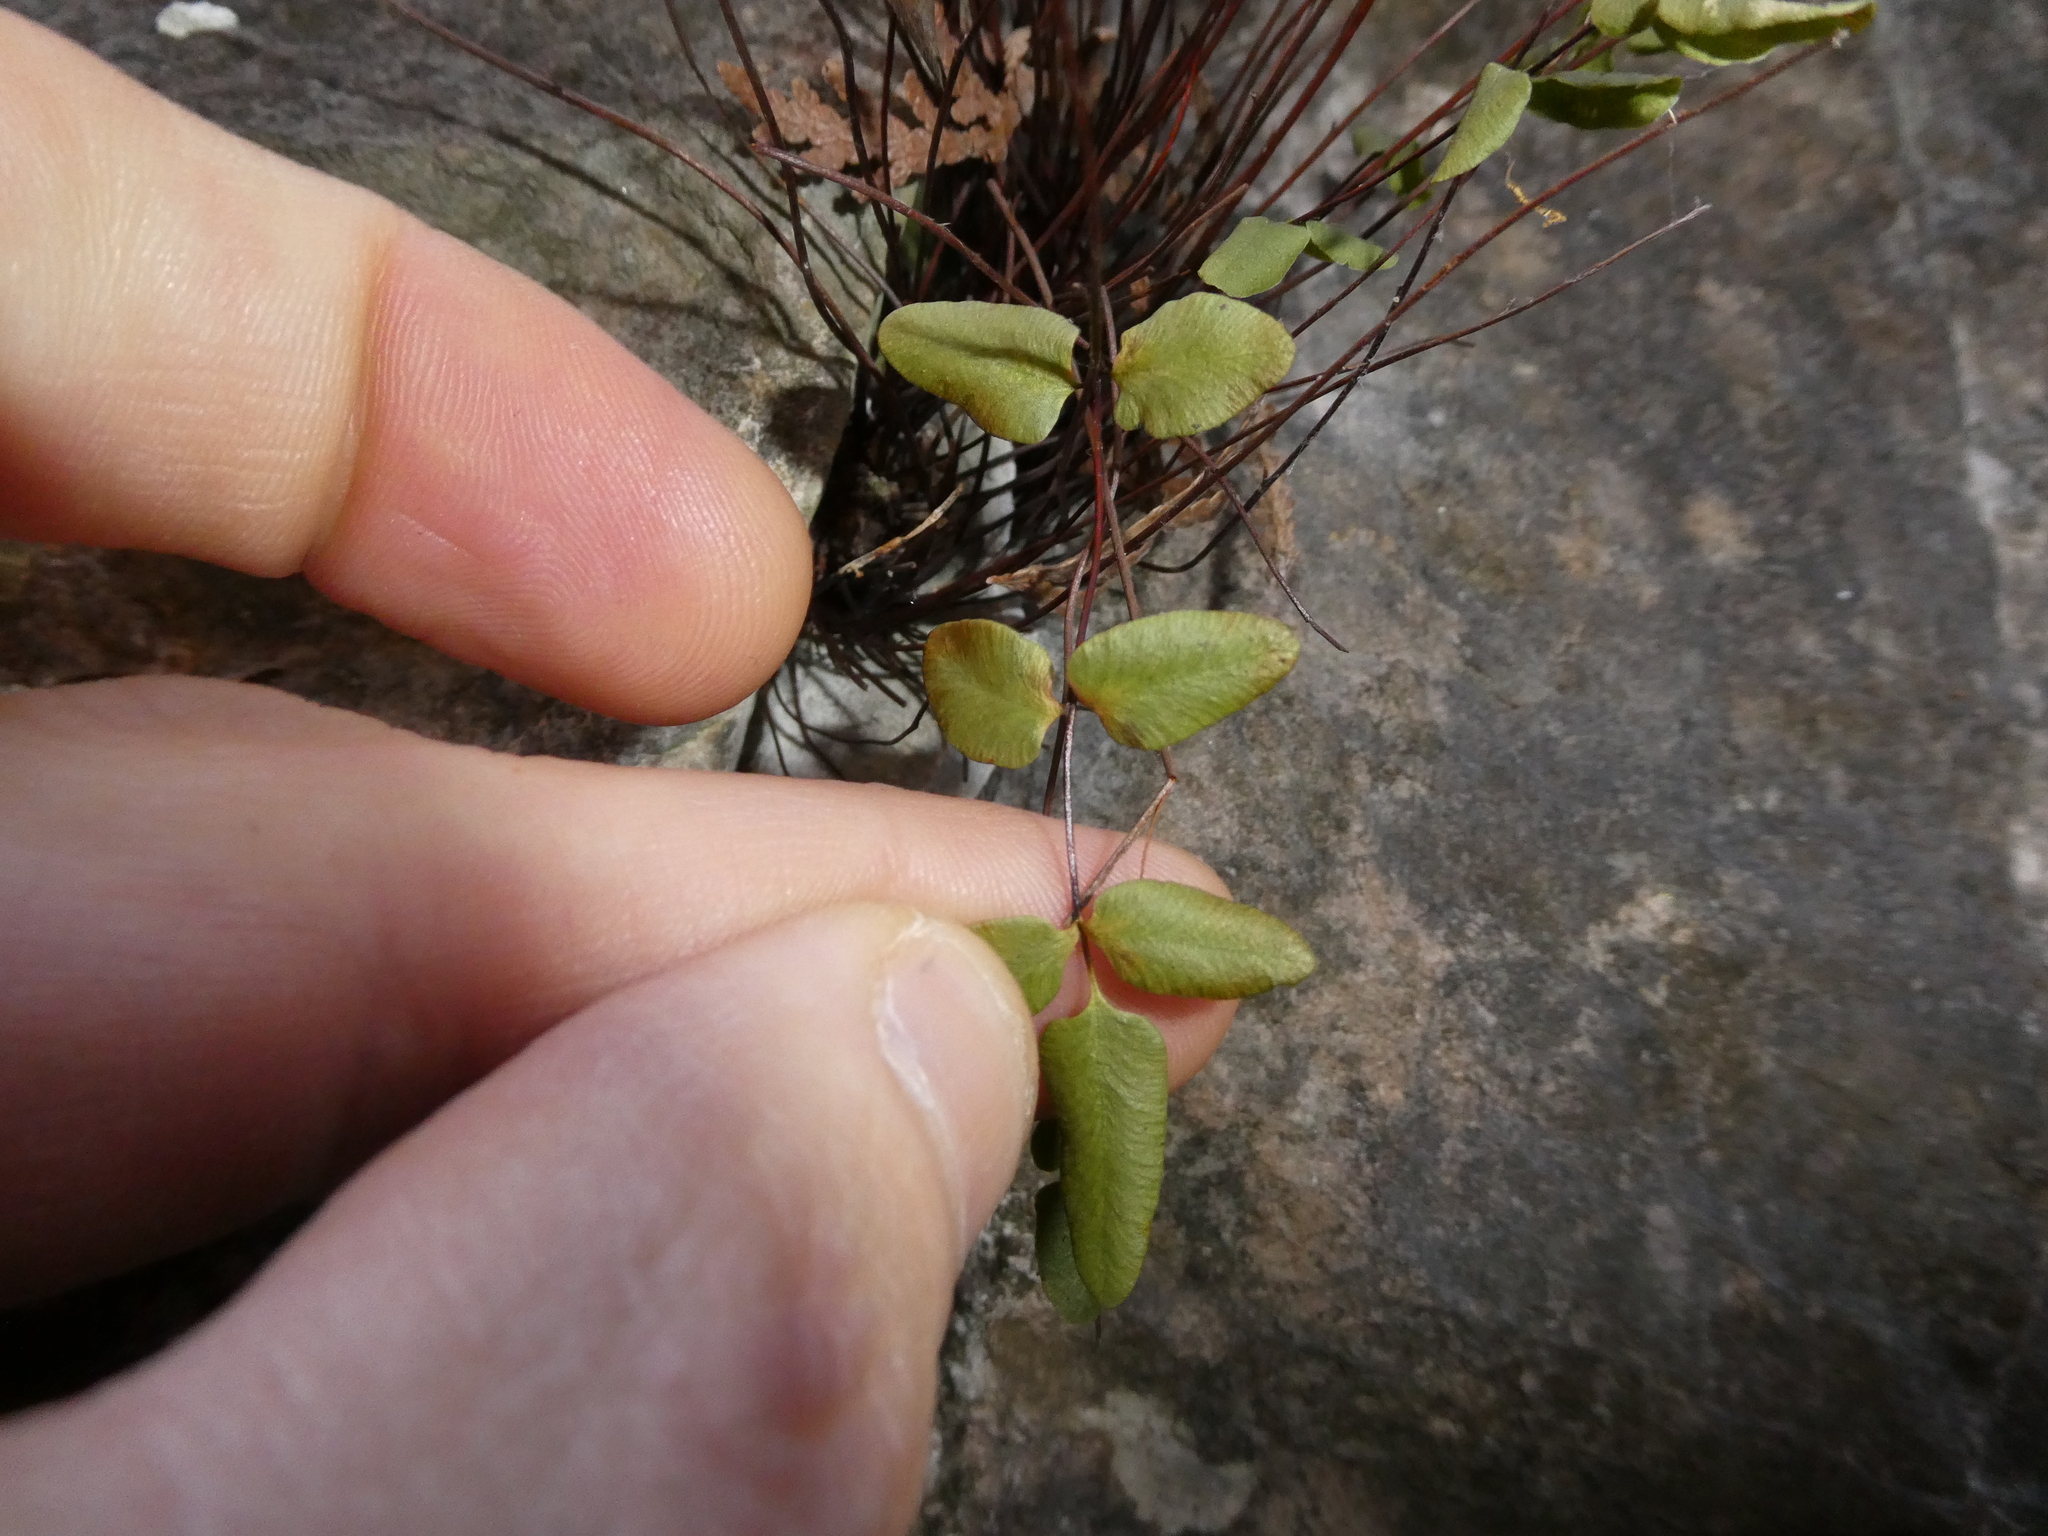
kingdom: Plantae
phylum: Tracheophyta
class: Polypodiopsida
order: Polypodiales
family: Pteridaceae
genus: Pellaea
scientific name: Pellaea glabella
